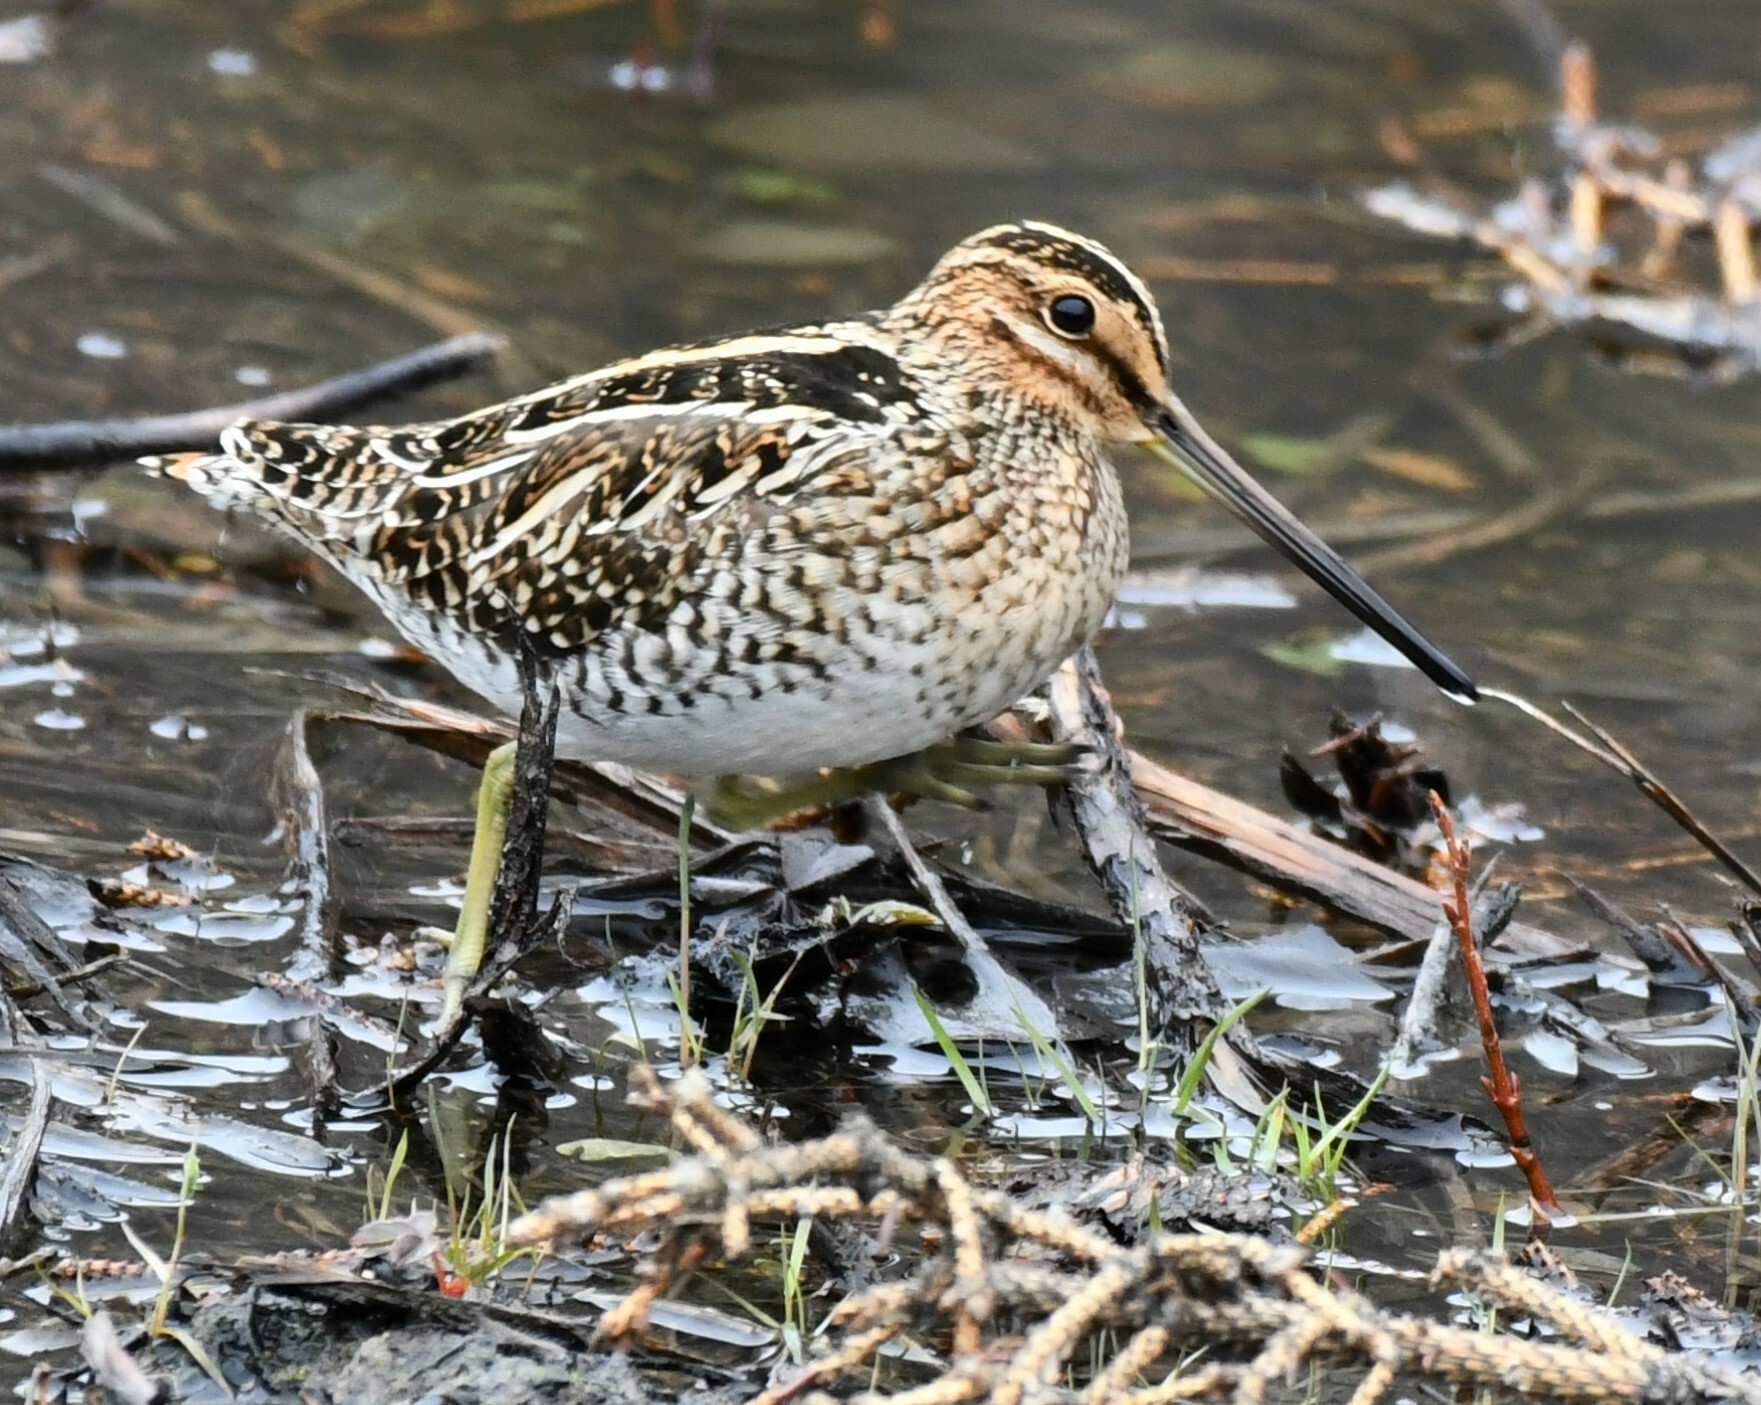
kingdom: Animalia
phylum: Chordata
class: Aves
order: Charadriiformes
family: Scolopacidae
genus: Gallinago
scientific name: Gallinago delicata
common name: Wilson's snipe
